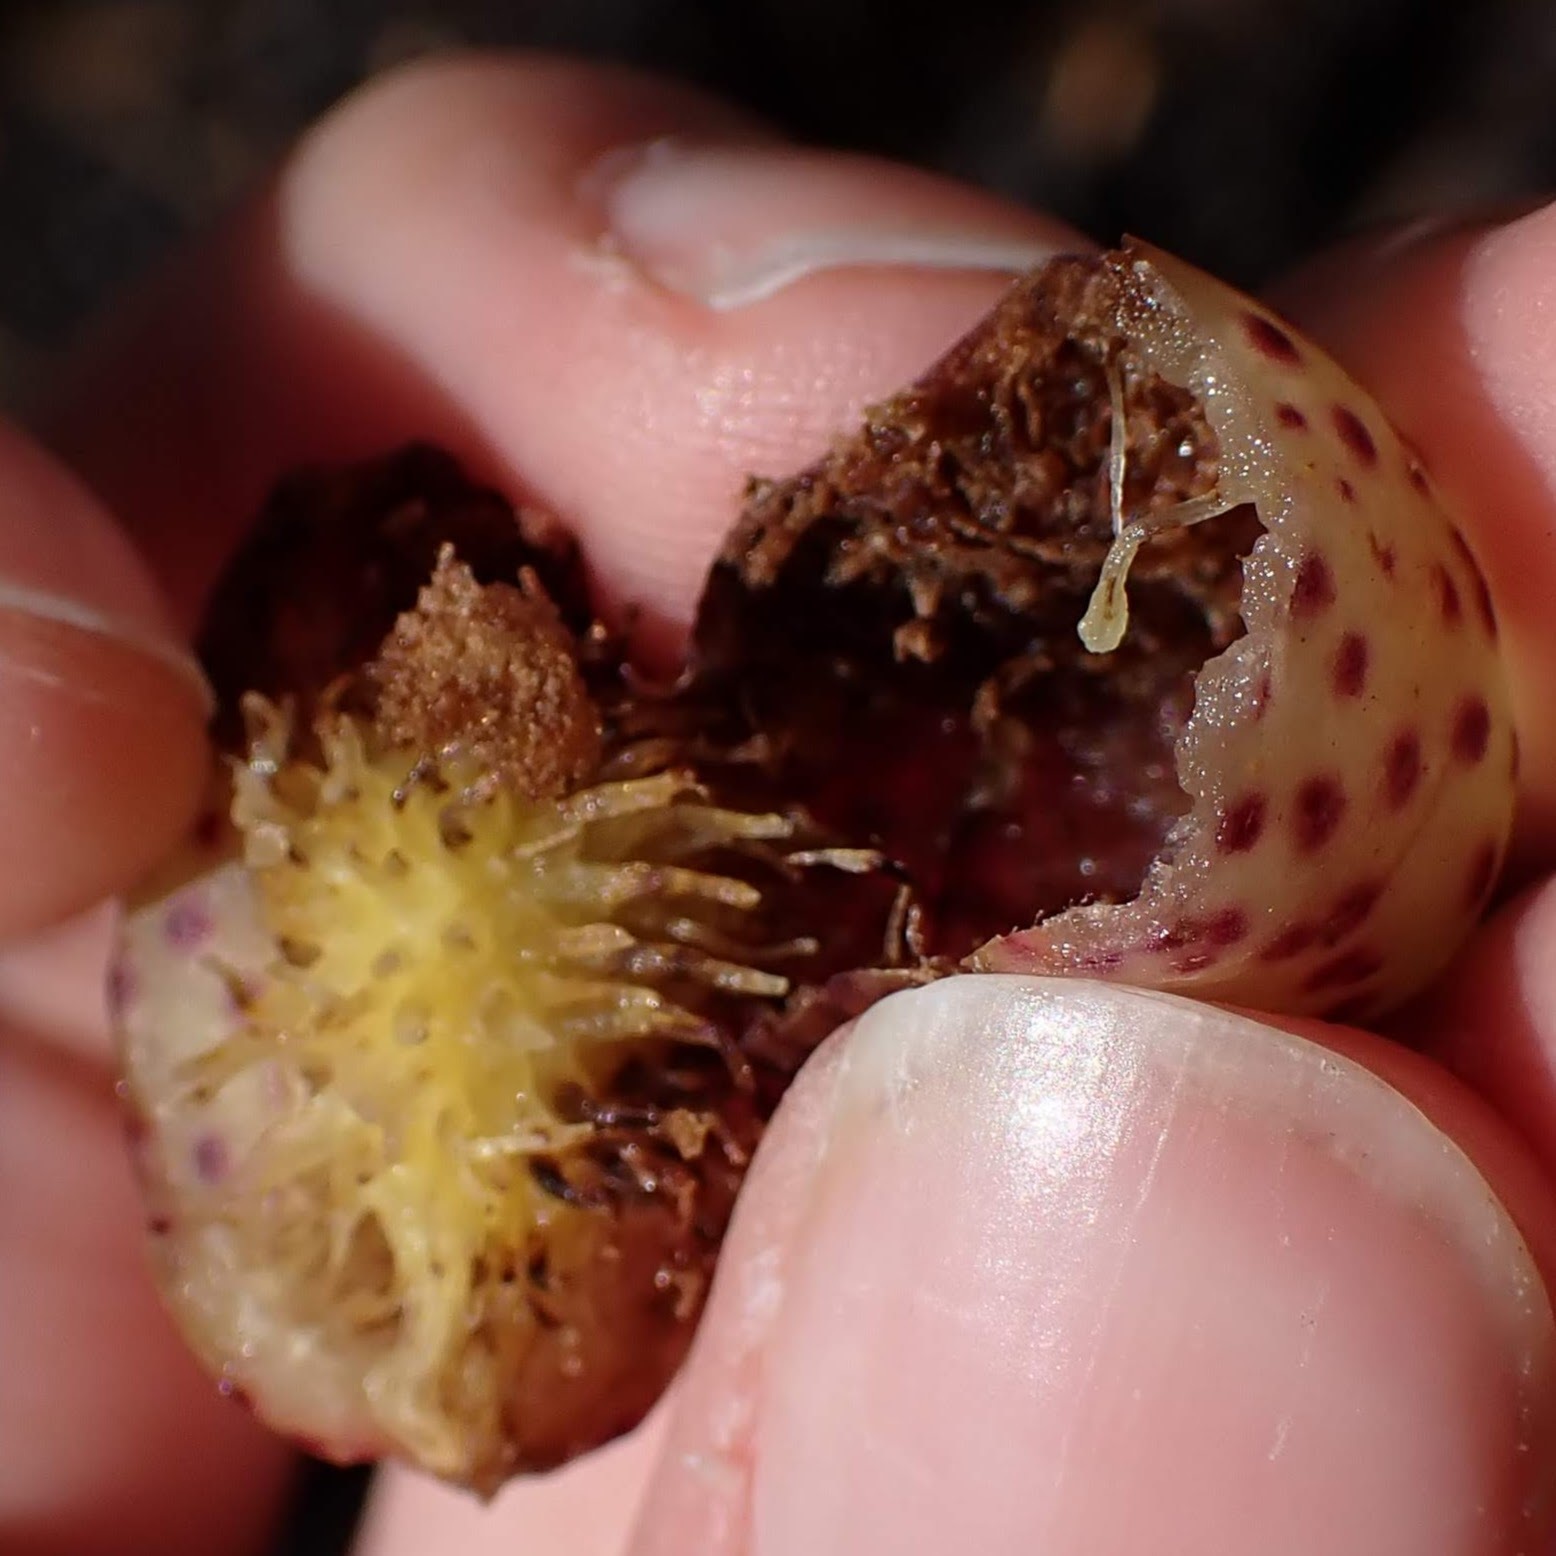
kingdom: Animalia
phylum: Arthropoda
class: Insecta
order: Hymenoptera
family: Cynipidae
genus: Amphibolips
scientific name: Amphibolips
